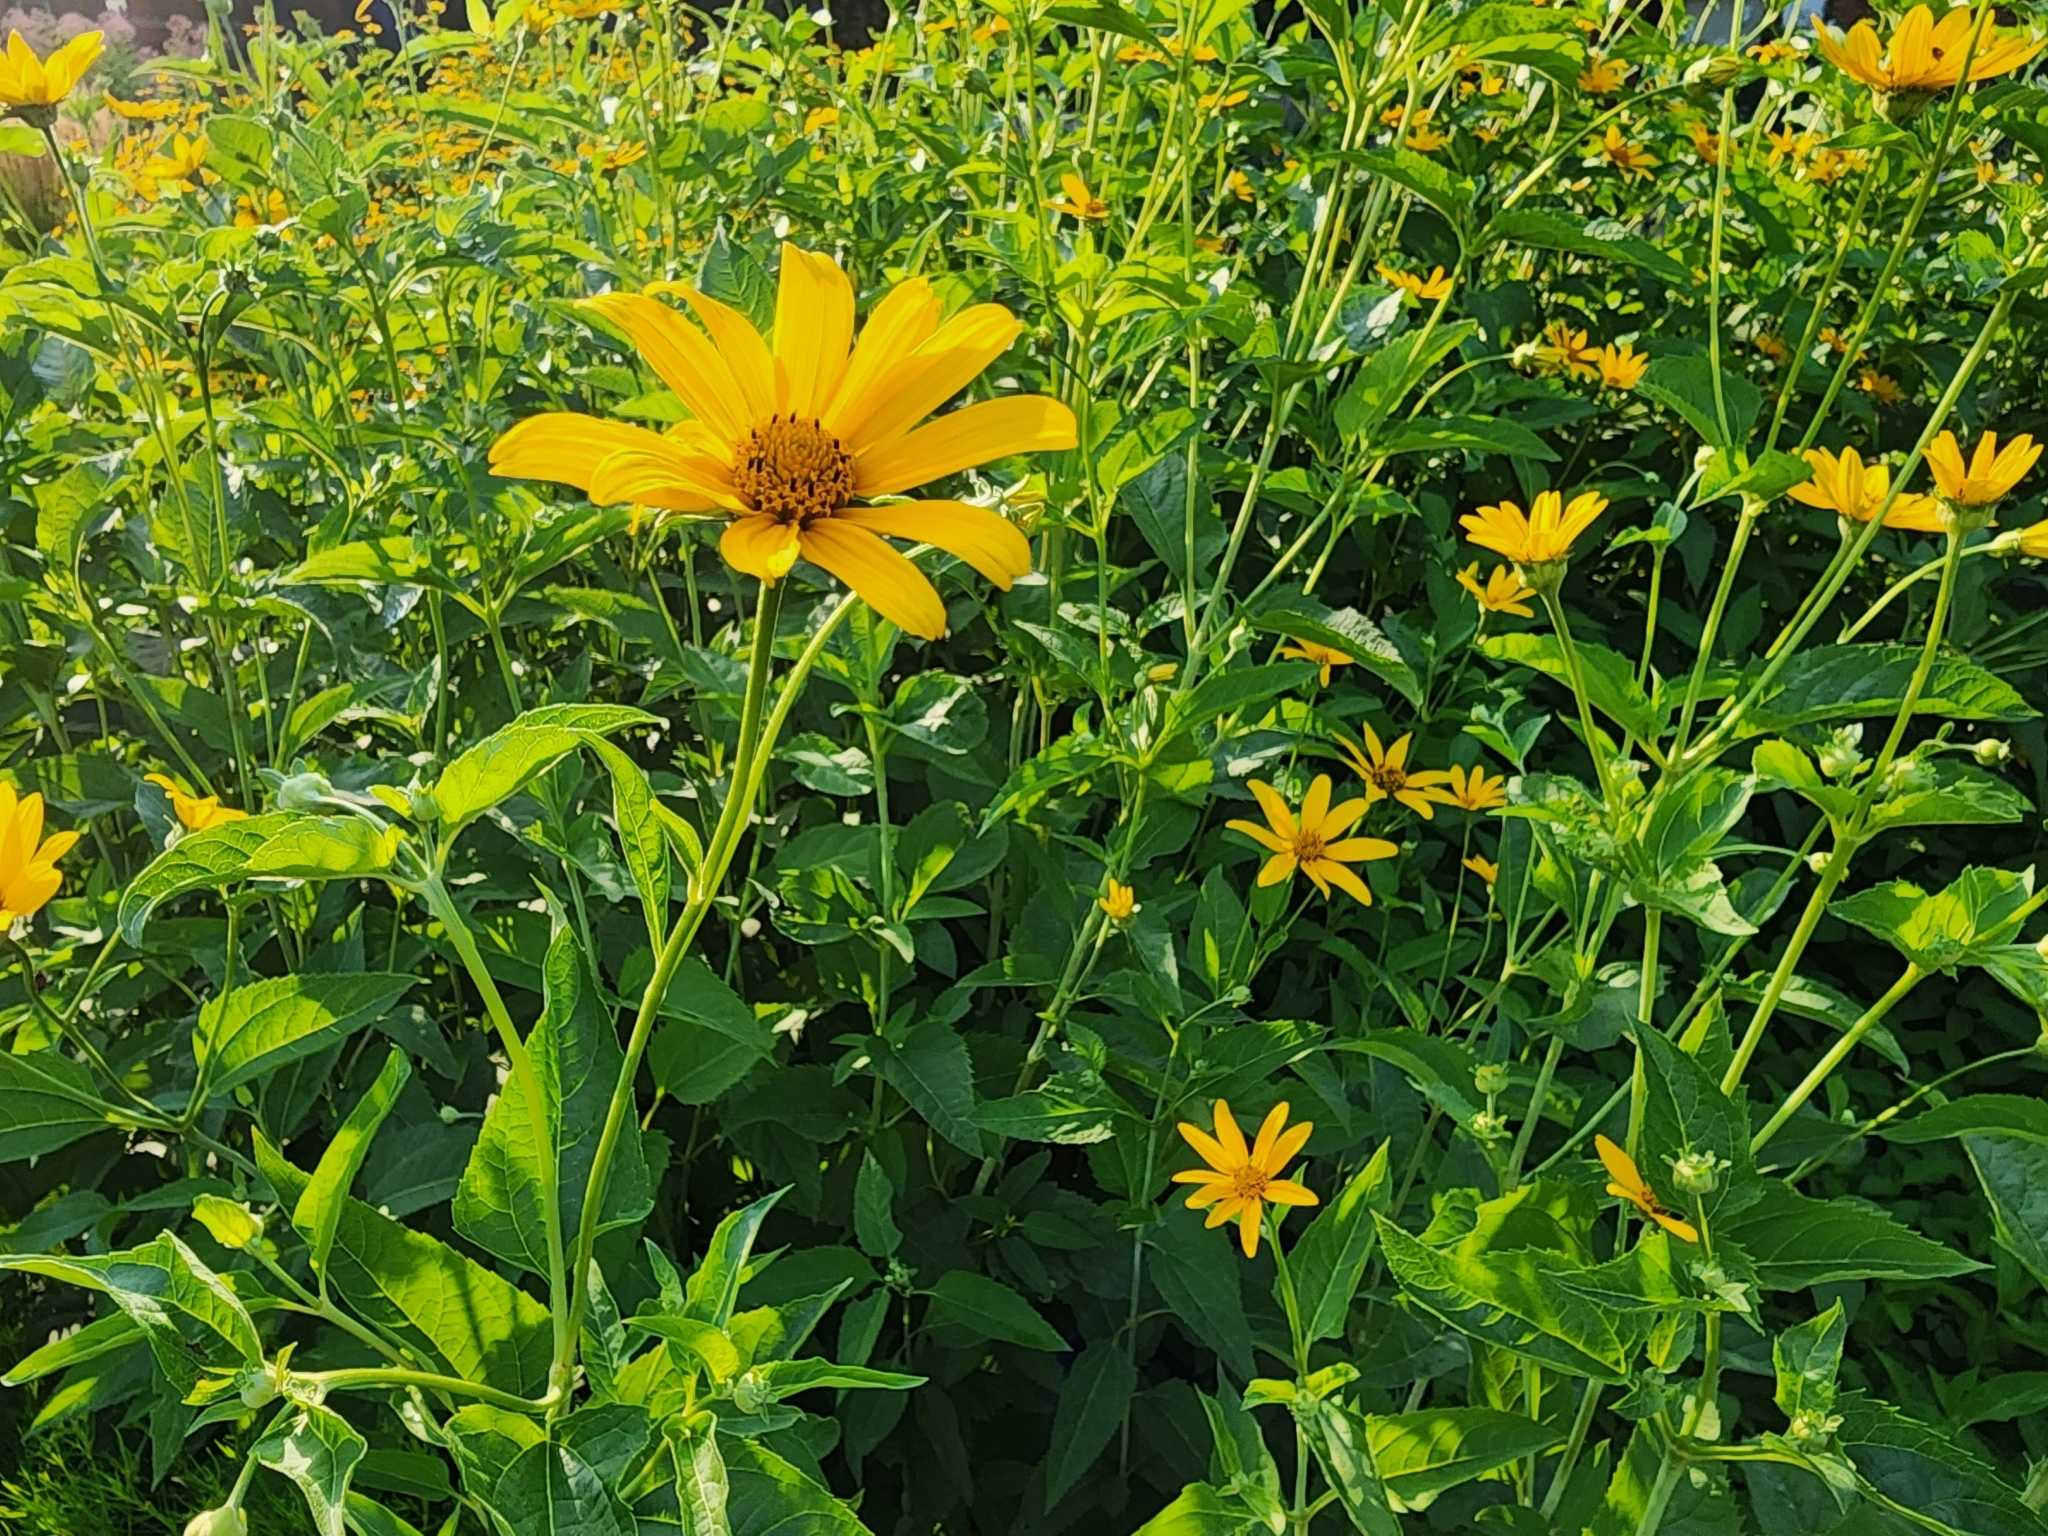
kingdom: Plantae
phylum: Tracheophyta
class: Magnoliopsida
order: Asterales
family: Asteraceae
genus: Heliopsis
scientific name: Heliopsis helianthoides
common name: False sunflower
